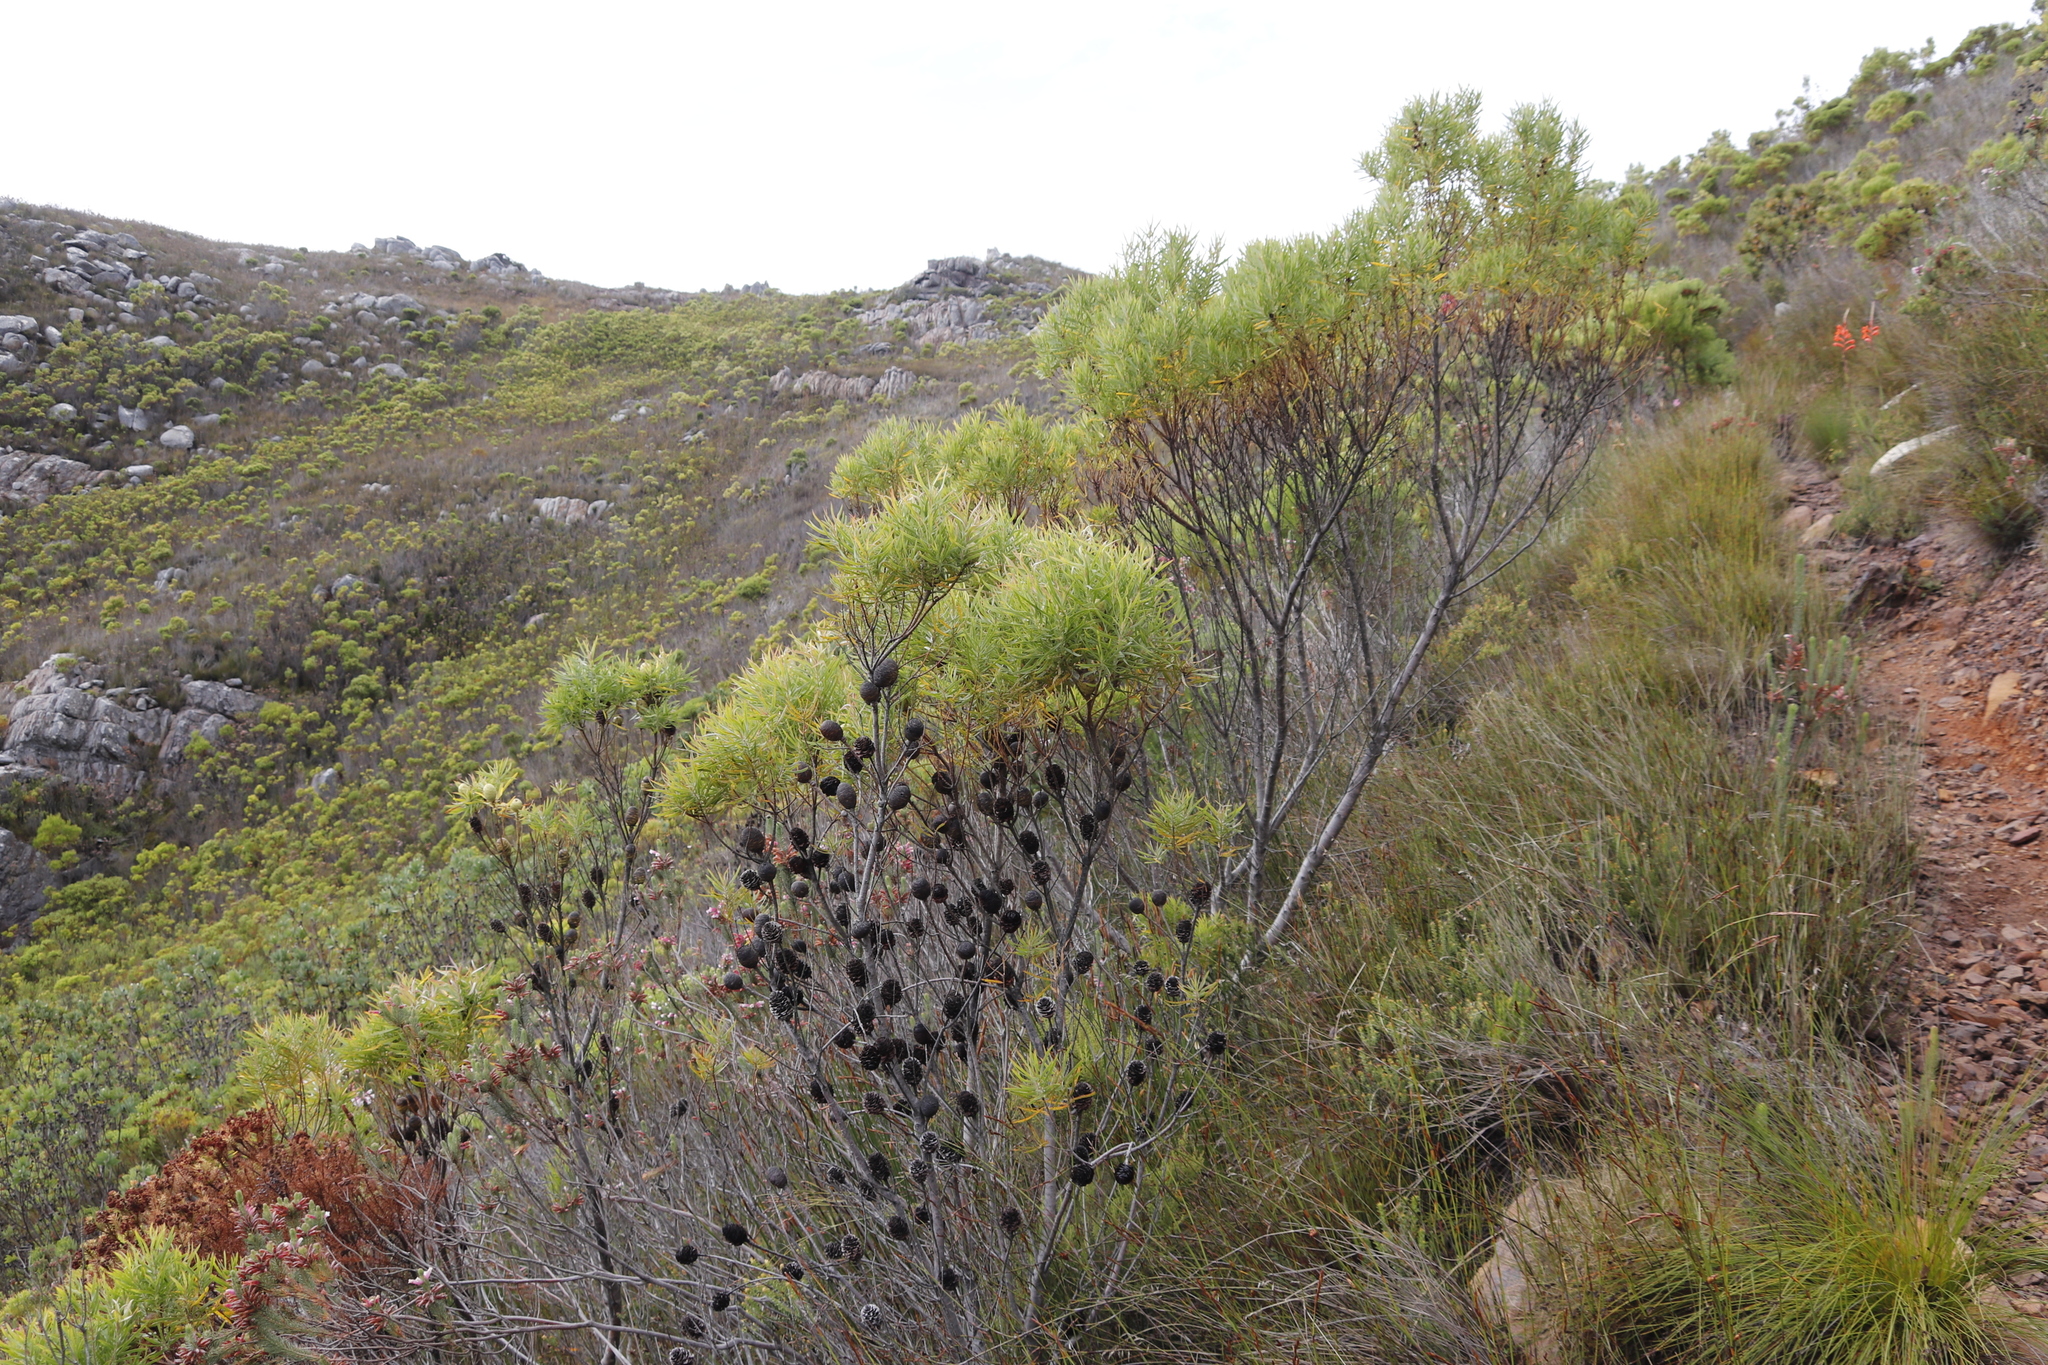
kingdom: Plantae
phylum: Tracheophyta
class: Magnoliopsida
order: Proteales
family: Proteaceae
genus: Leucadendron
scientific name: Leucadendron salicifolium
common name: Common stream conebush
